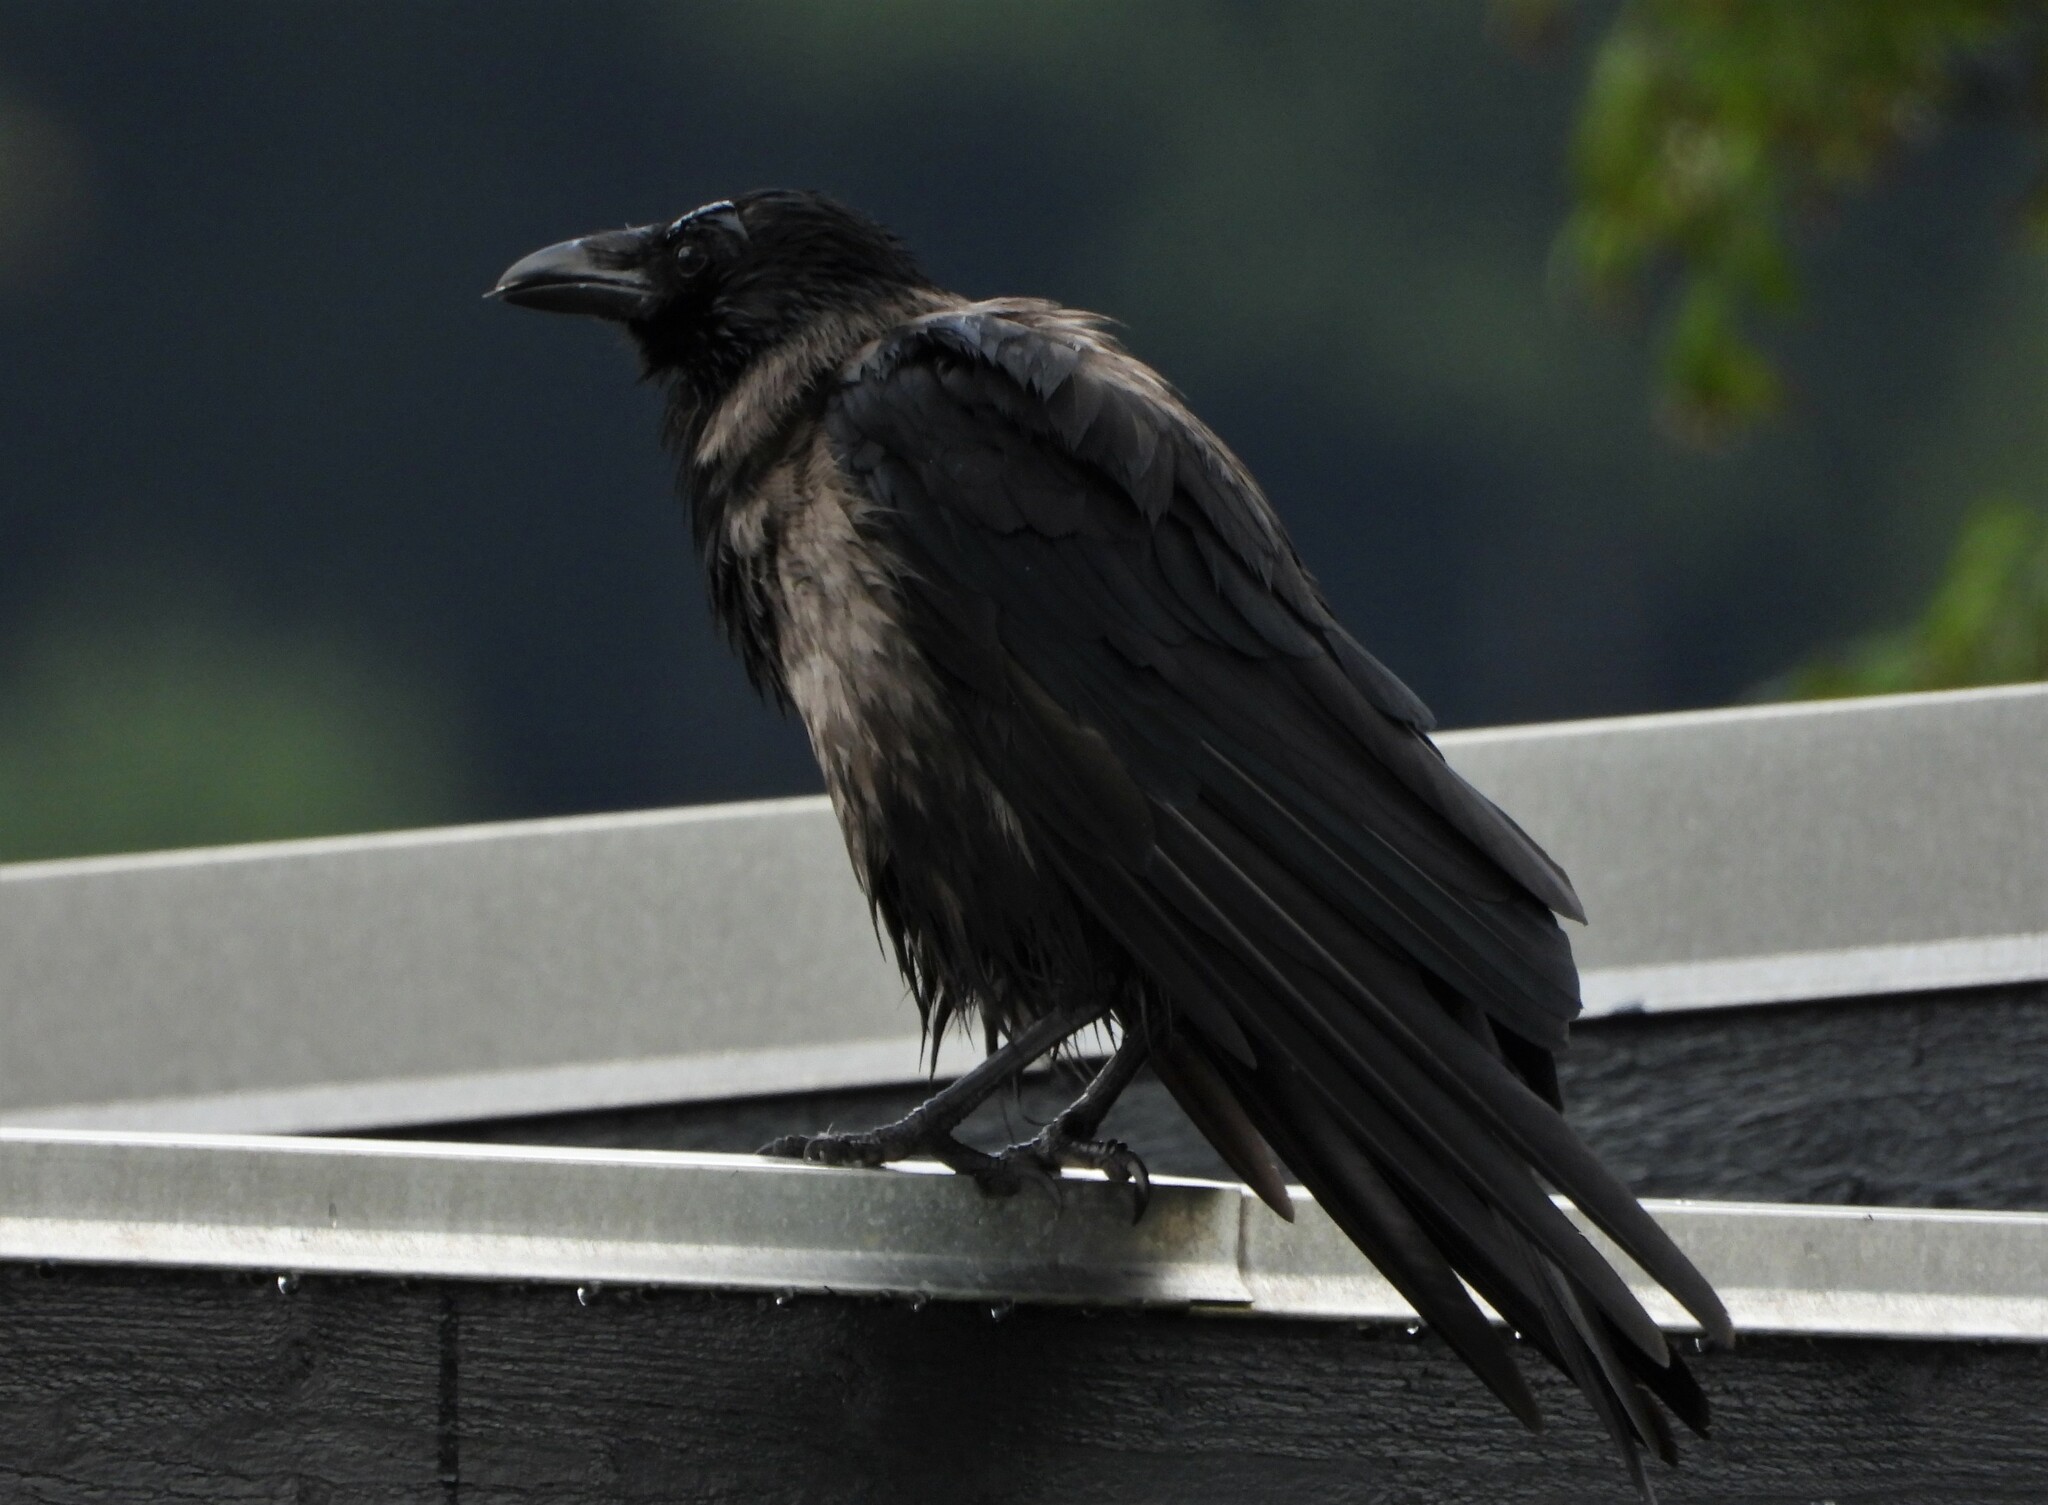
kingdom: Animalia
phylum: Chordata
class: Aves
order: Passeriformes
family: Corvidae
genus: Corvus
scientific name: Corvus
